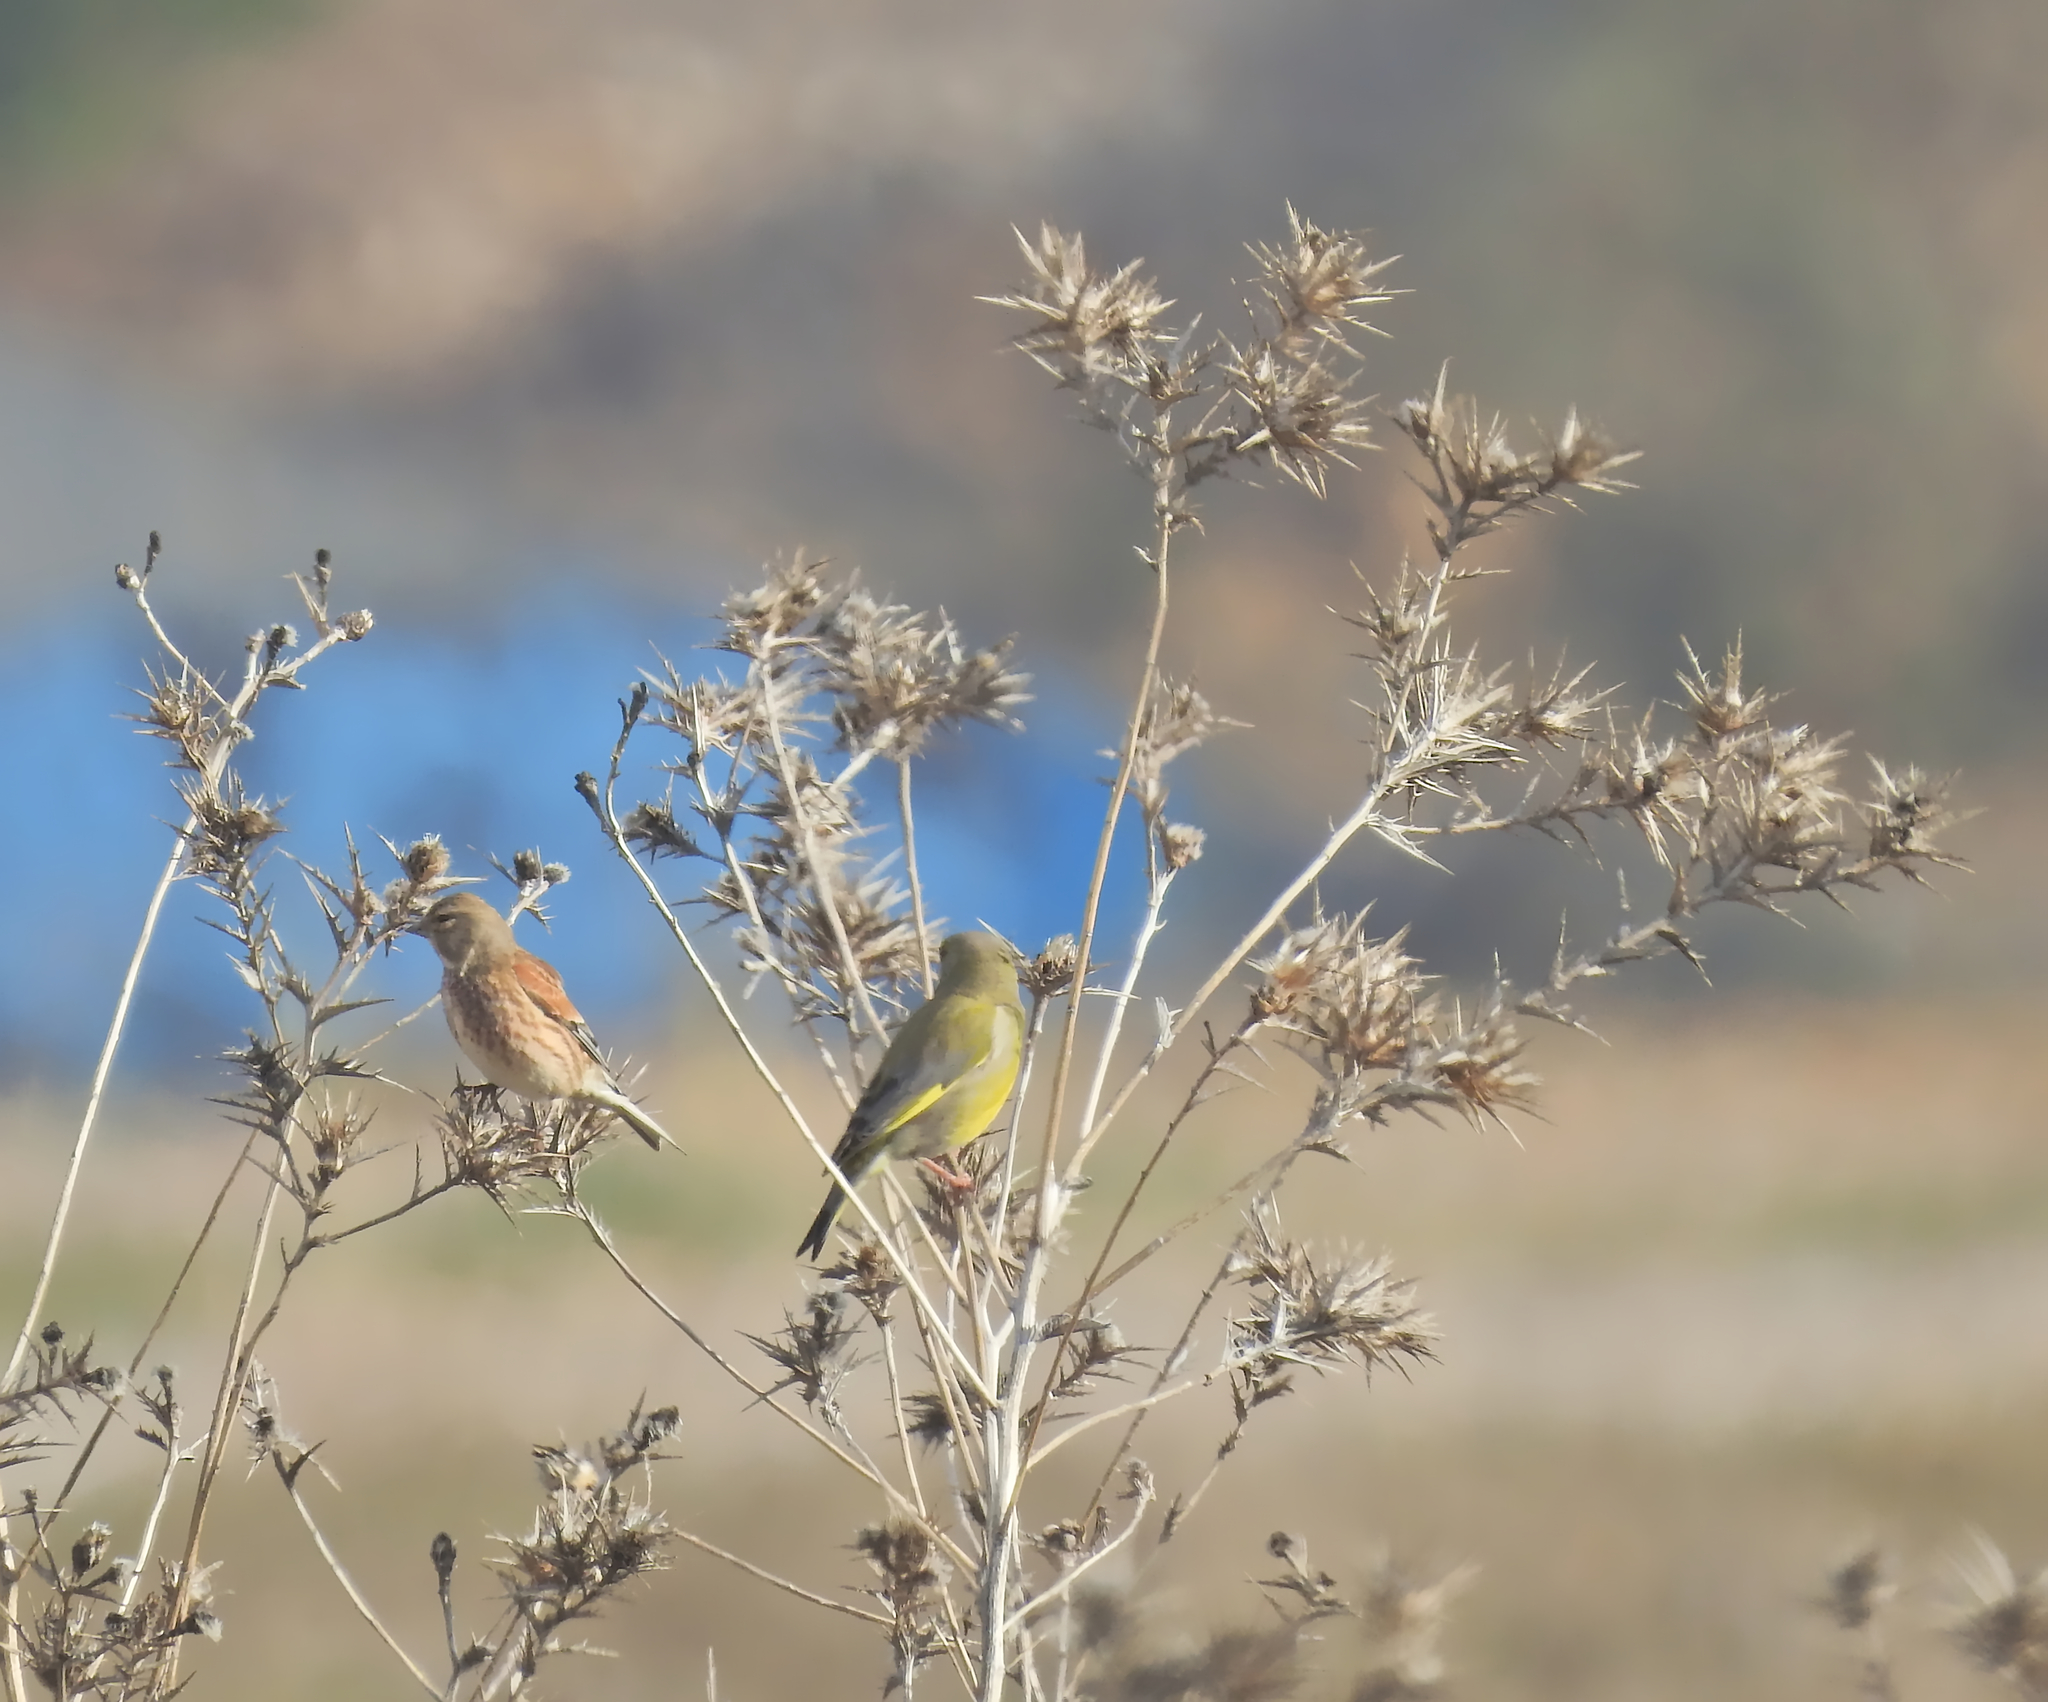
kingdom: Plantae
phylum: Tracheophyta
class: Liliopsida
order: Poales
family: Poaceae
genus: Chloris
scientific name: Chloris chloris
